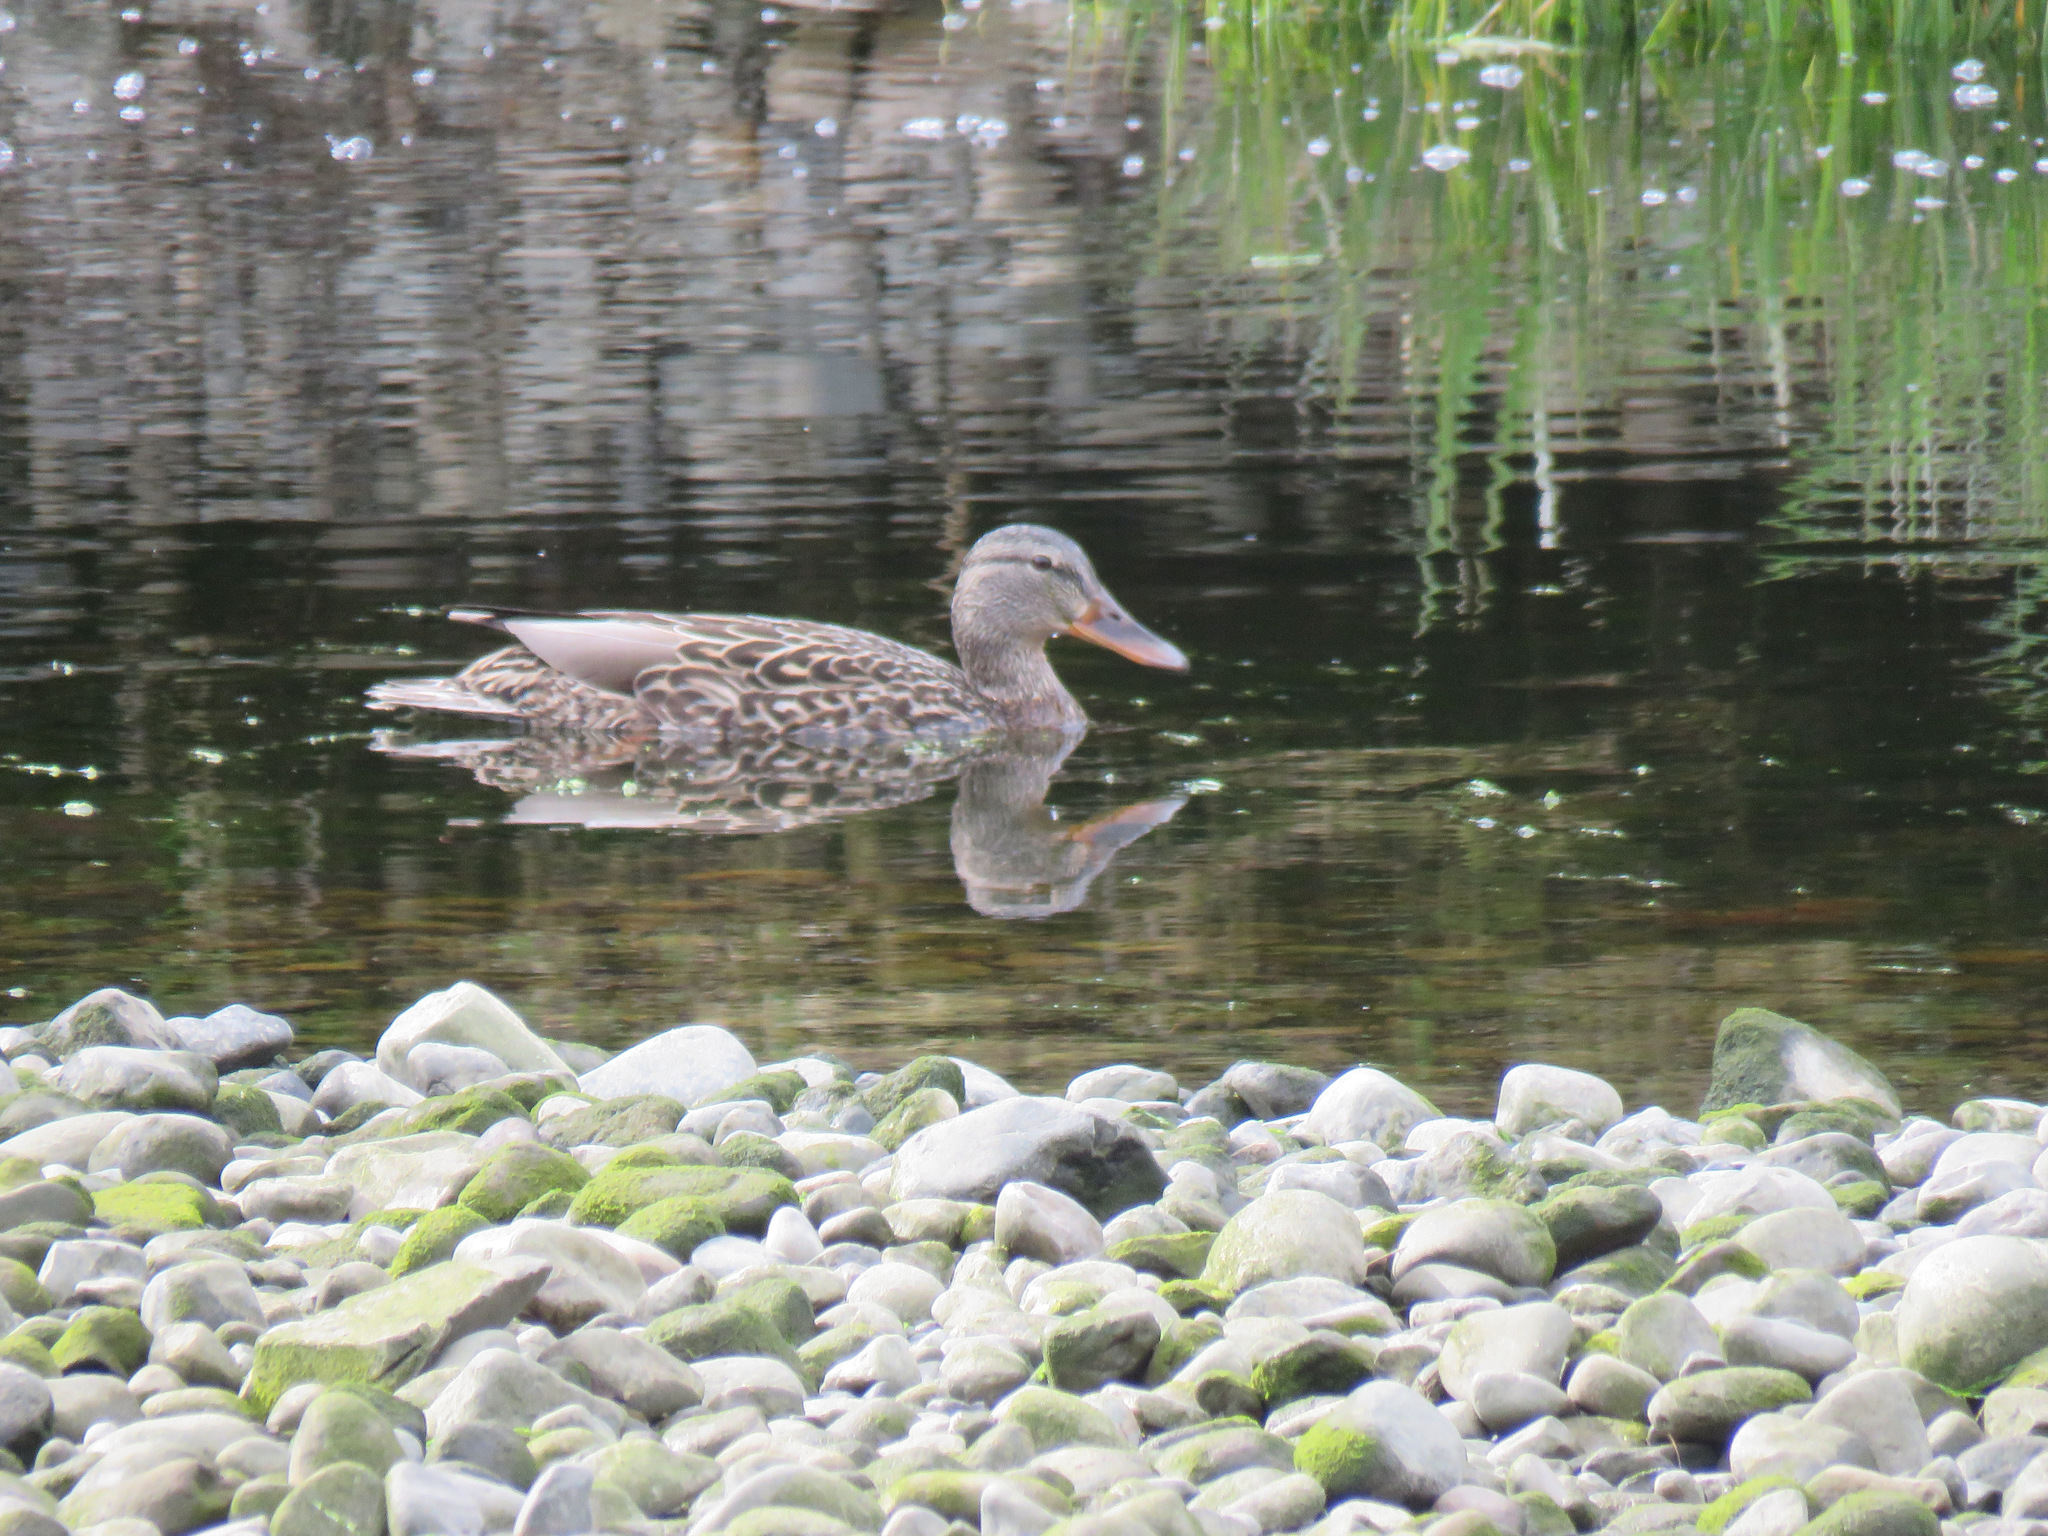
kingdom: Animalia
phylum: Chordata
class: Aves
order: Anseriformes
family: Anatidae
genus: Anas
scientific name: Anas platyrhynchos
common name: Mallard
